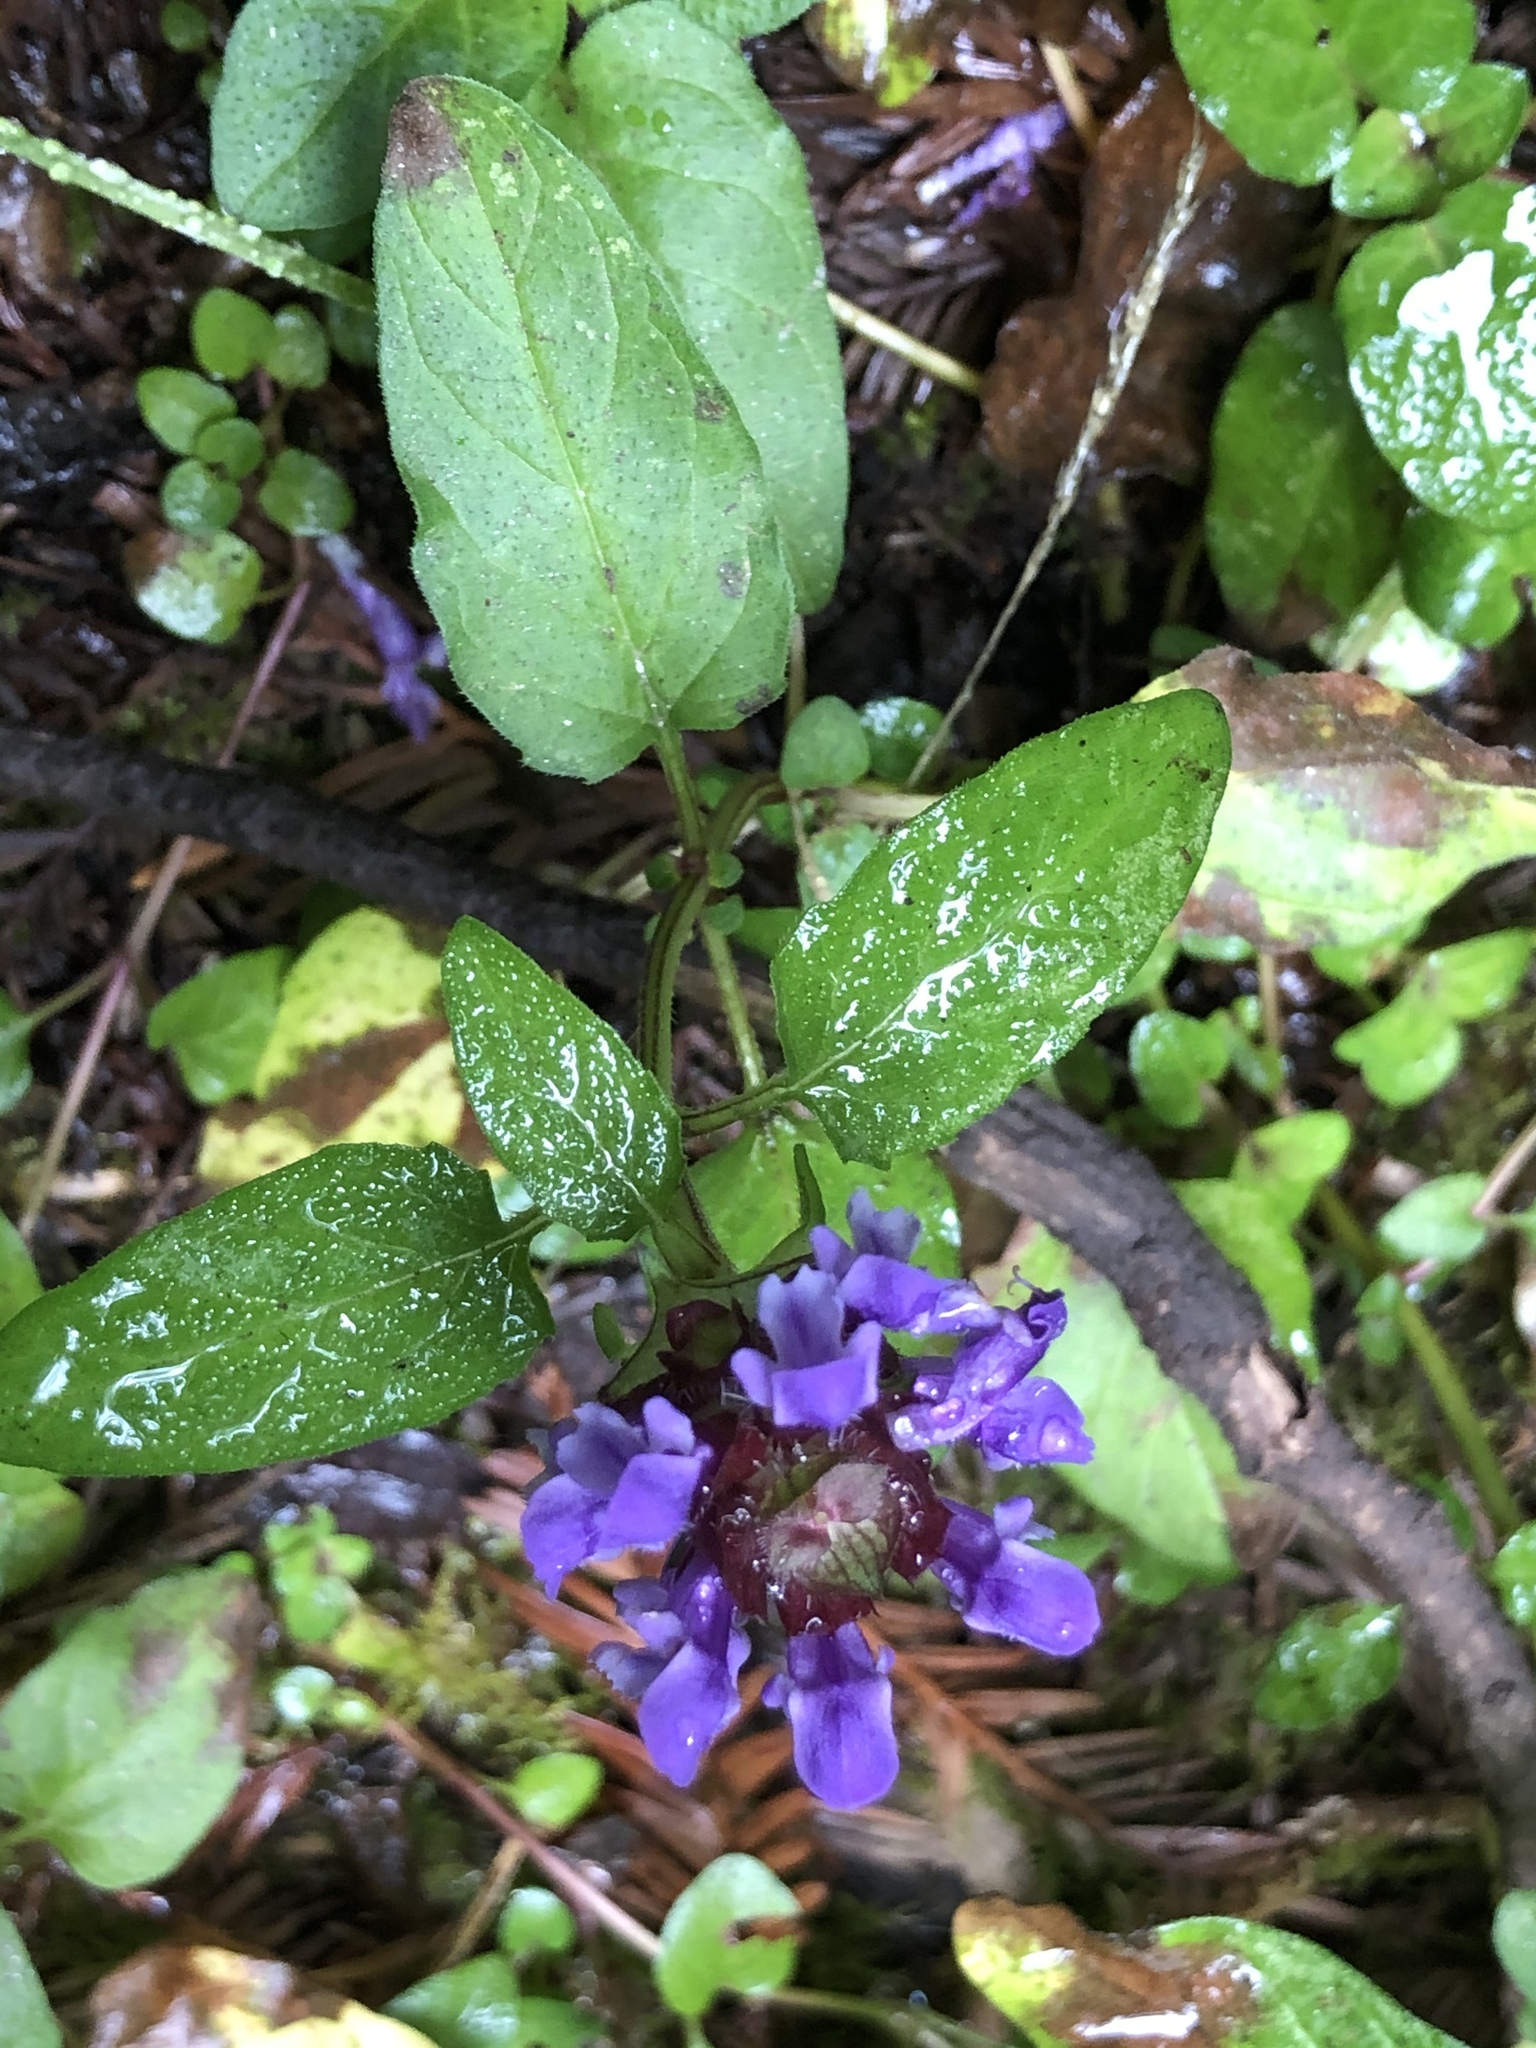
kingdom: Plantae
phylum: Tracheophyta
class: Magnoliopsida
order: Lamiales
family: Lamiaceae
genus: Prunella
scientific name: Prunella vulgaris
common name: Heal-all
